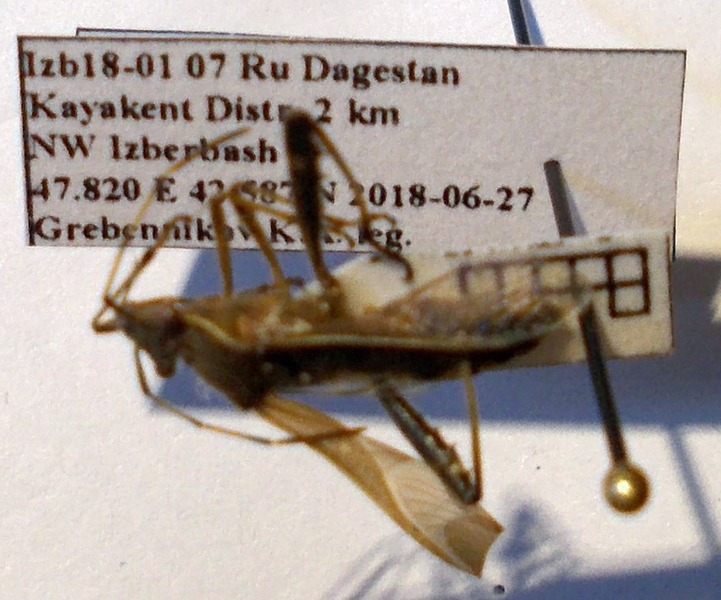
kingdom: Animalia
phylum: Arthropoda
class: Insecta
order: Hemiptera
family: Alydidae
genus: Camptopus
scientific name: Camptopus lateralis
